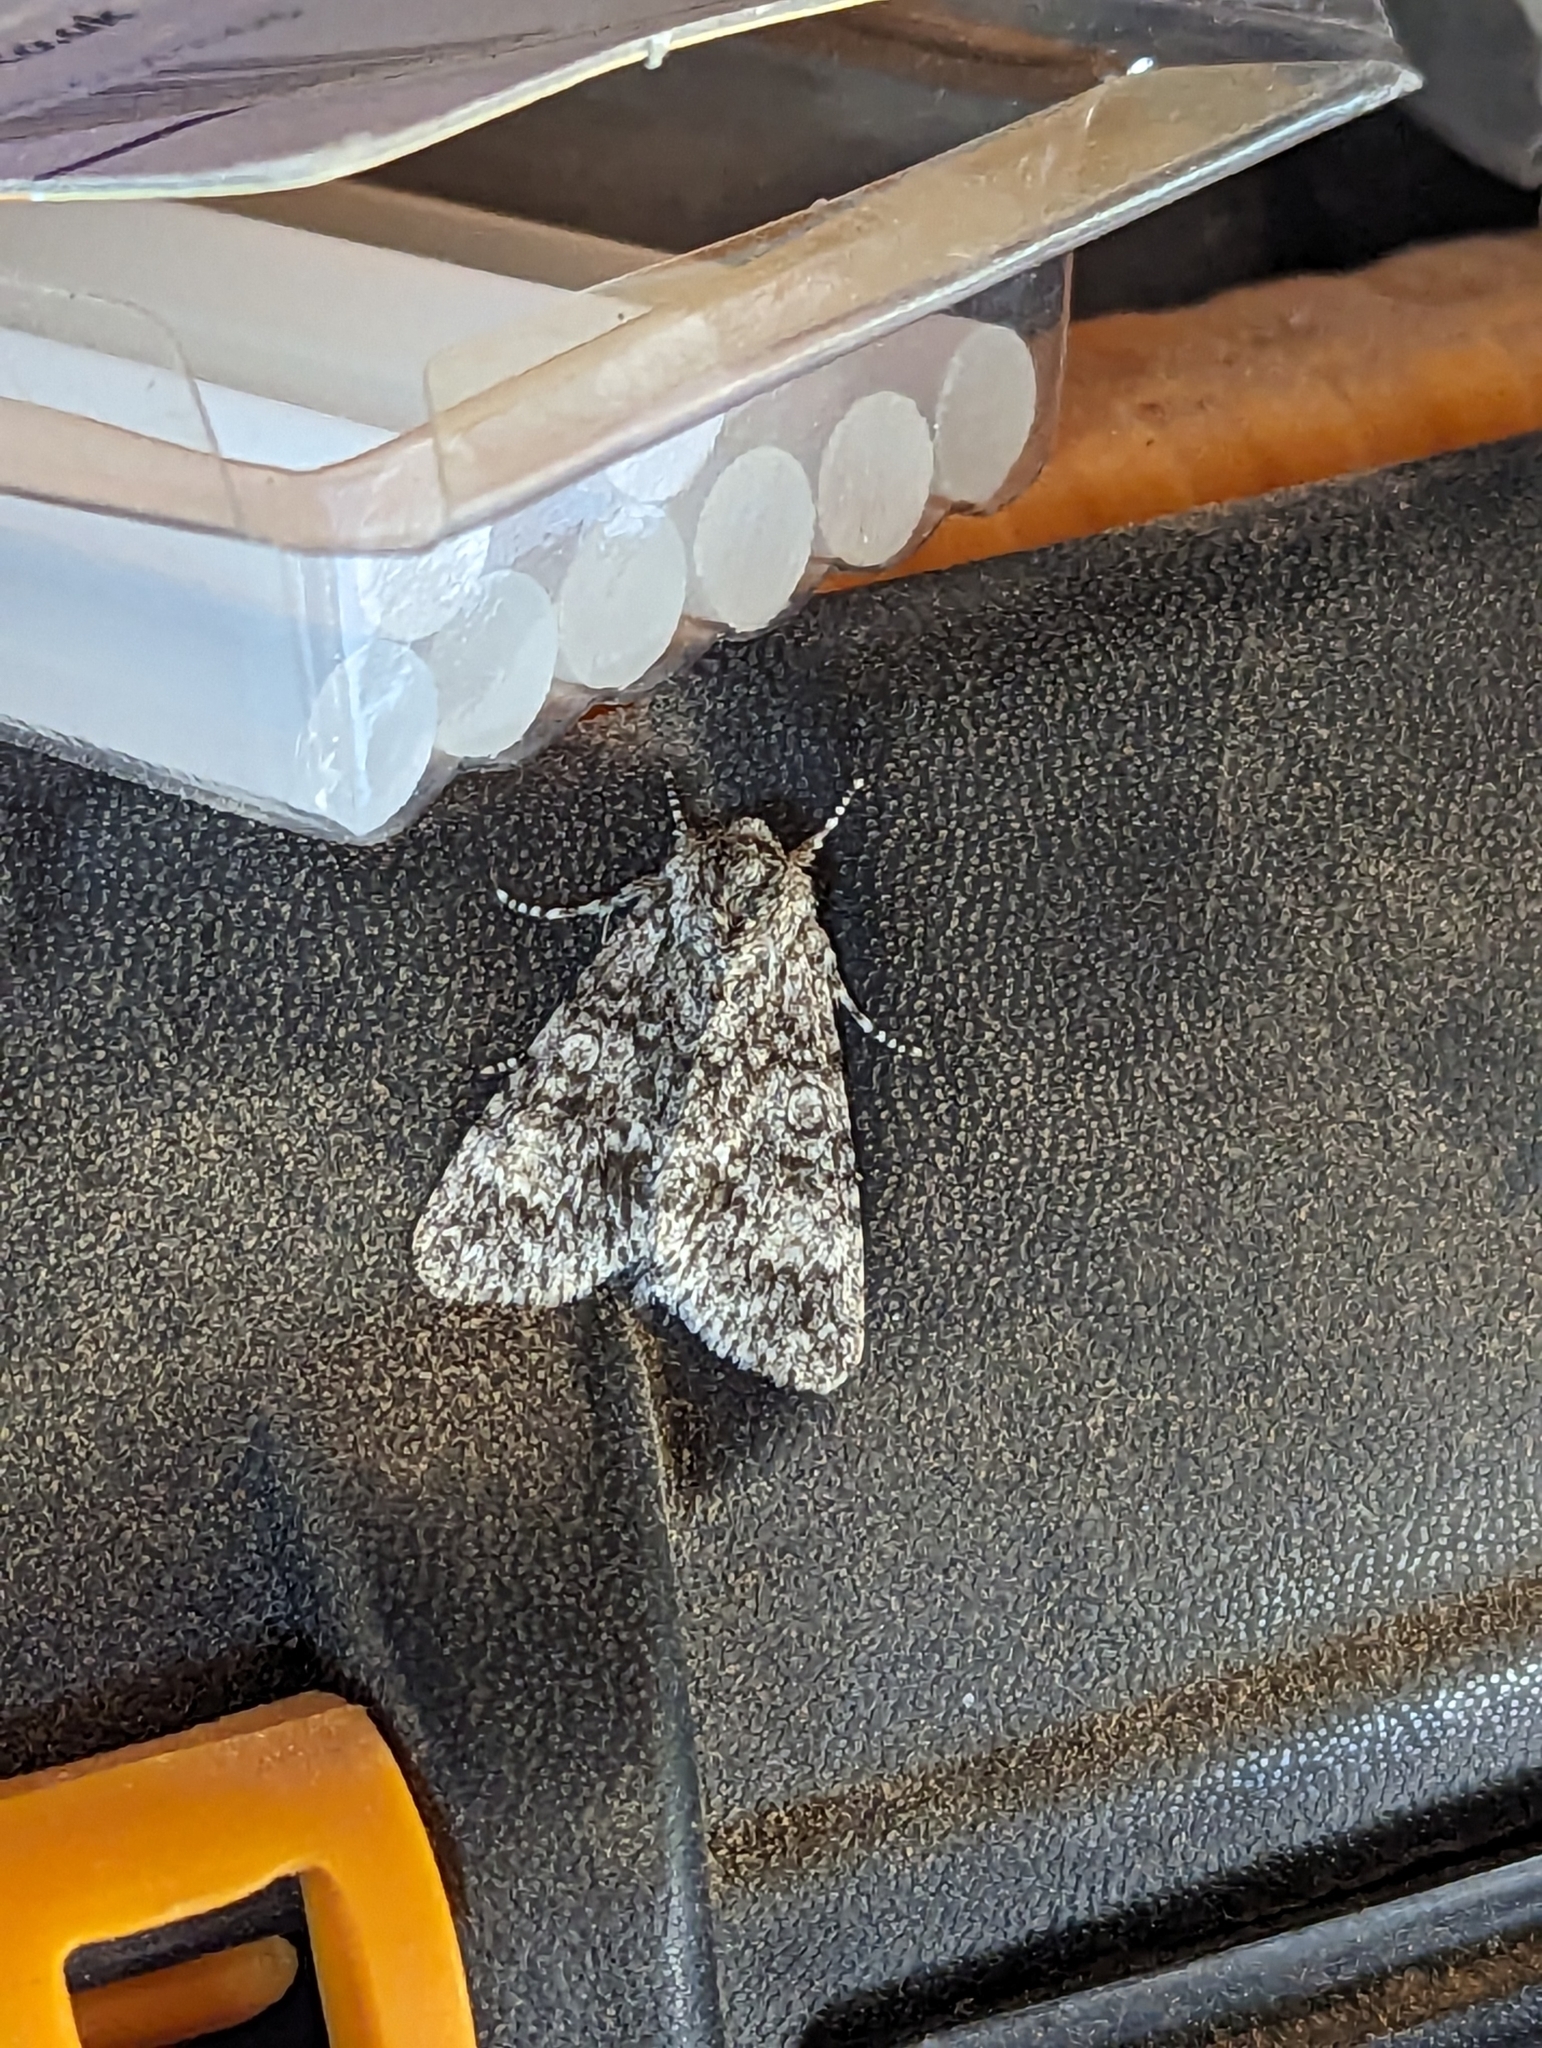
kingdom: Animalia
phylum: Arthropoda
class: Insecta
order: Lepidoptera
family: Noctuidae
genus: Acronicta
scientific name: Acronicta megacephala
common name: Poplar grey
